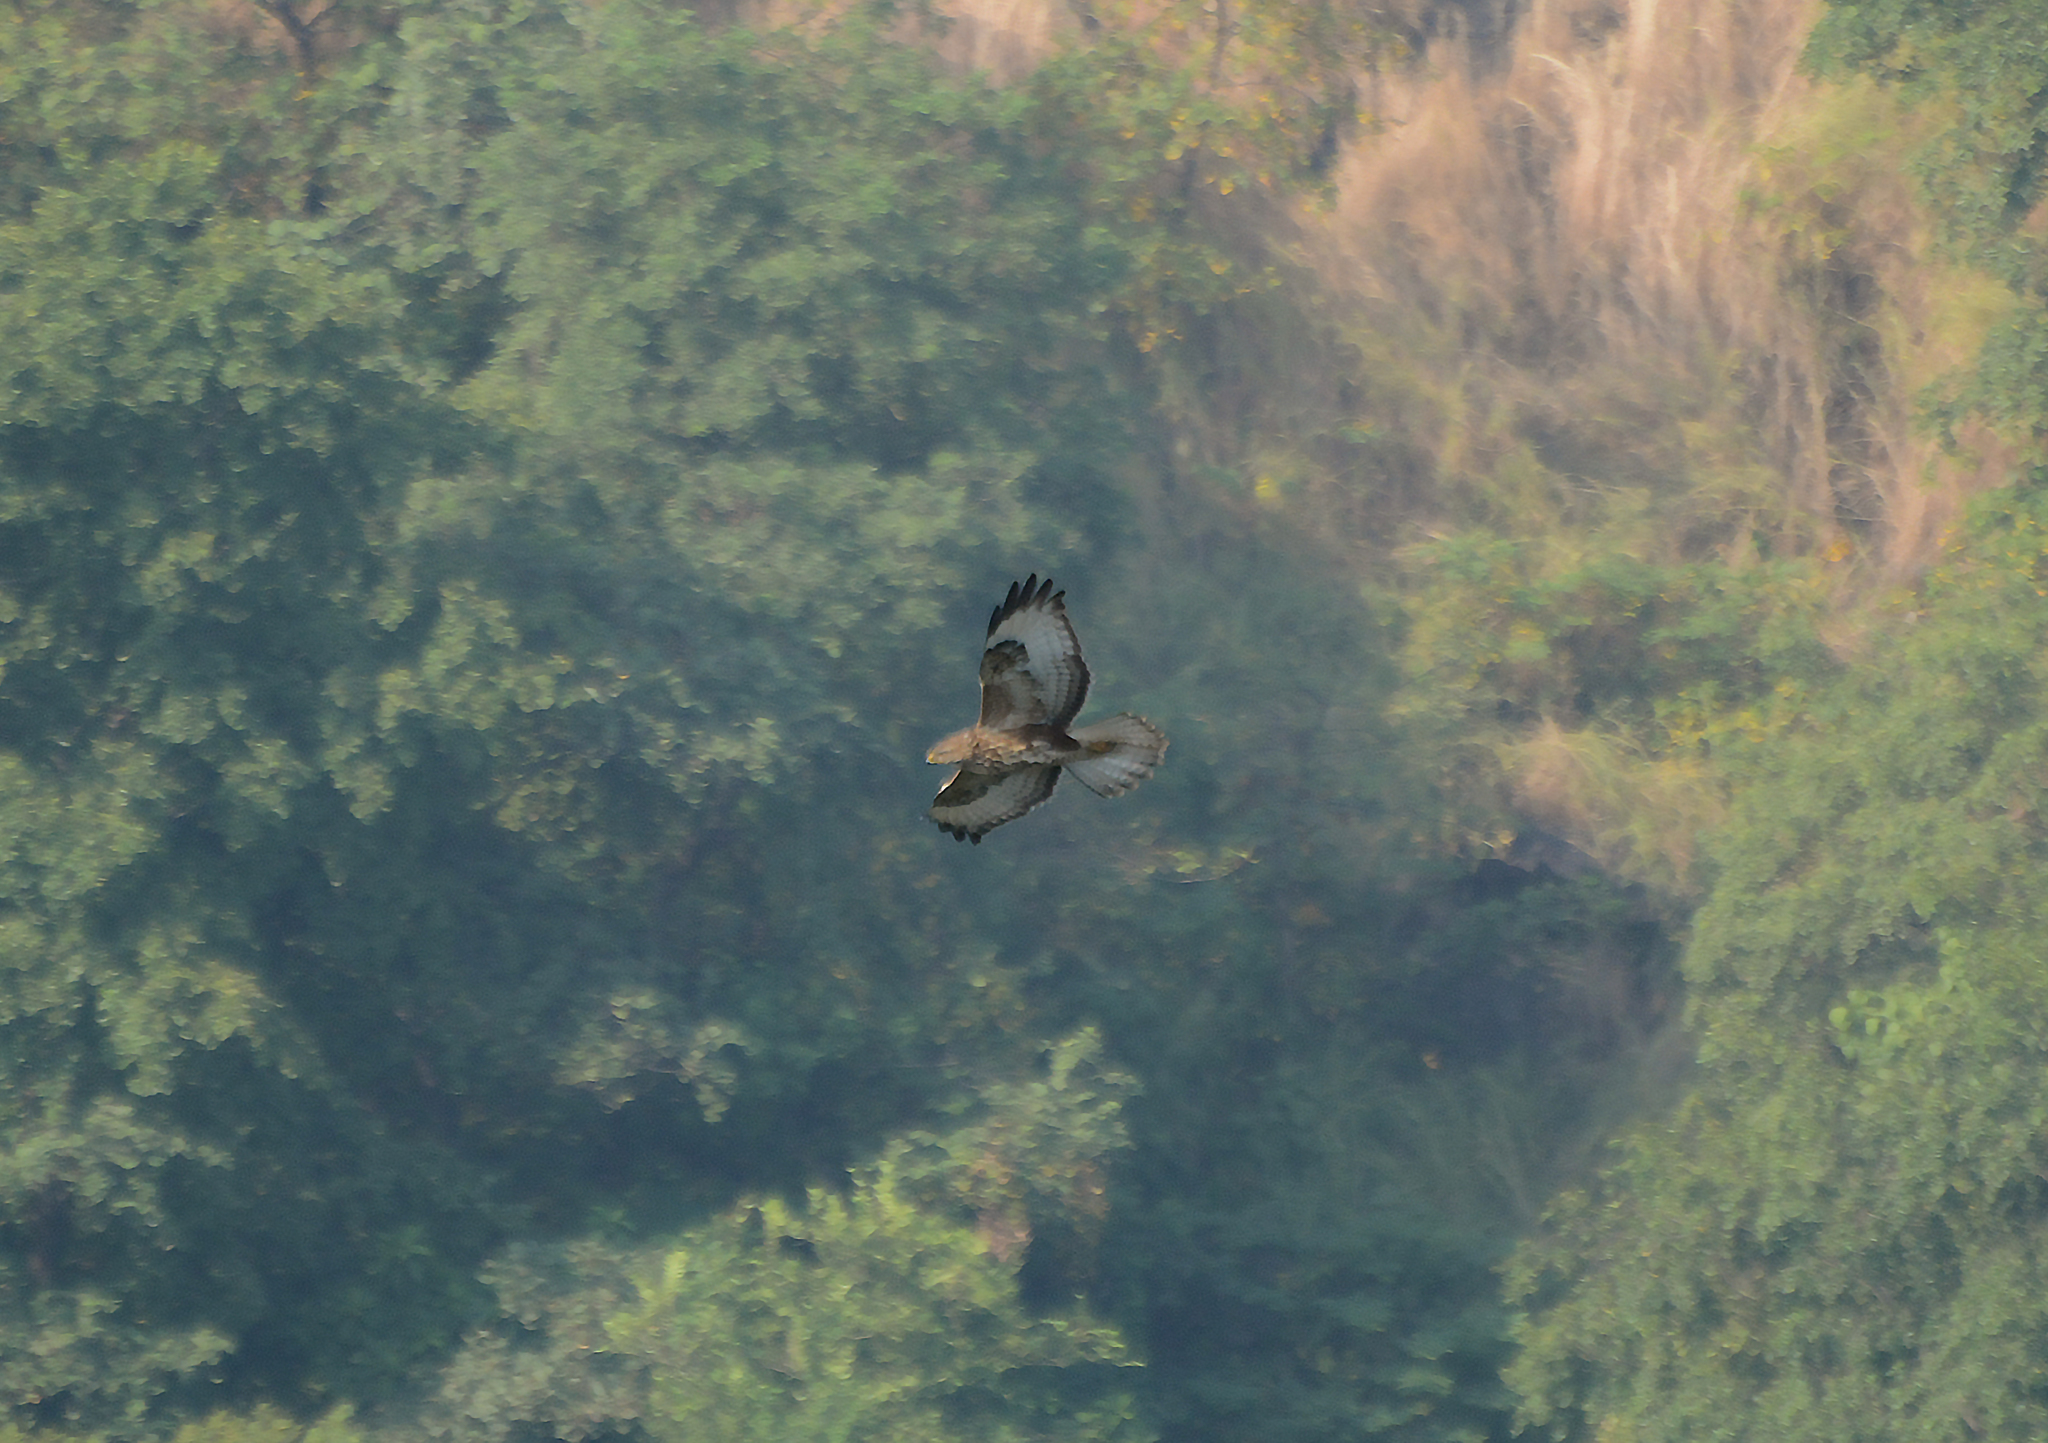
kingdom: Animalia
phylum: Chordata
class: Aves
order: Accipitriformes
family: Accipitridae
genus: Buteo
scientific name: Buteo buteo
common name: Common buzzard
